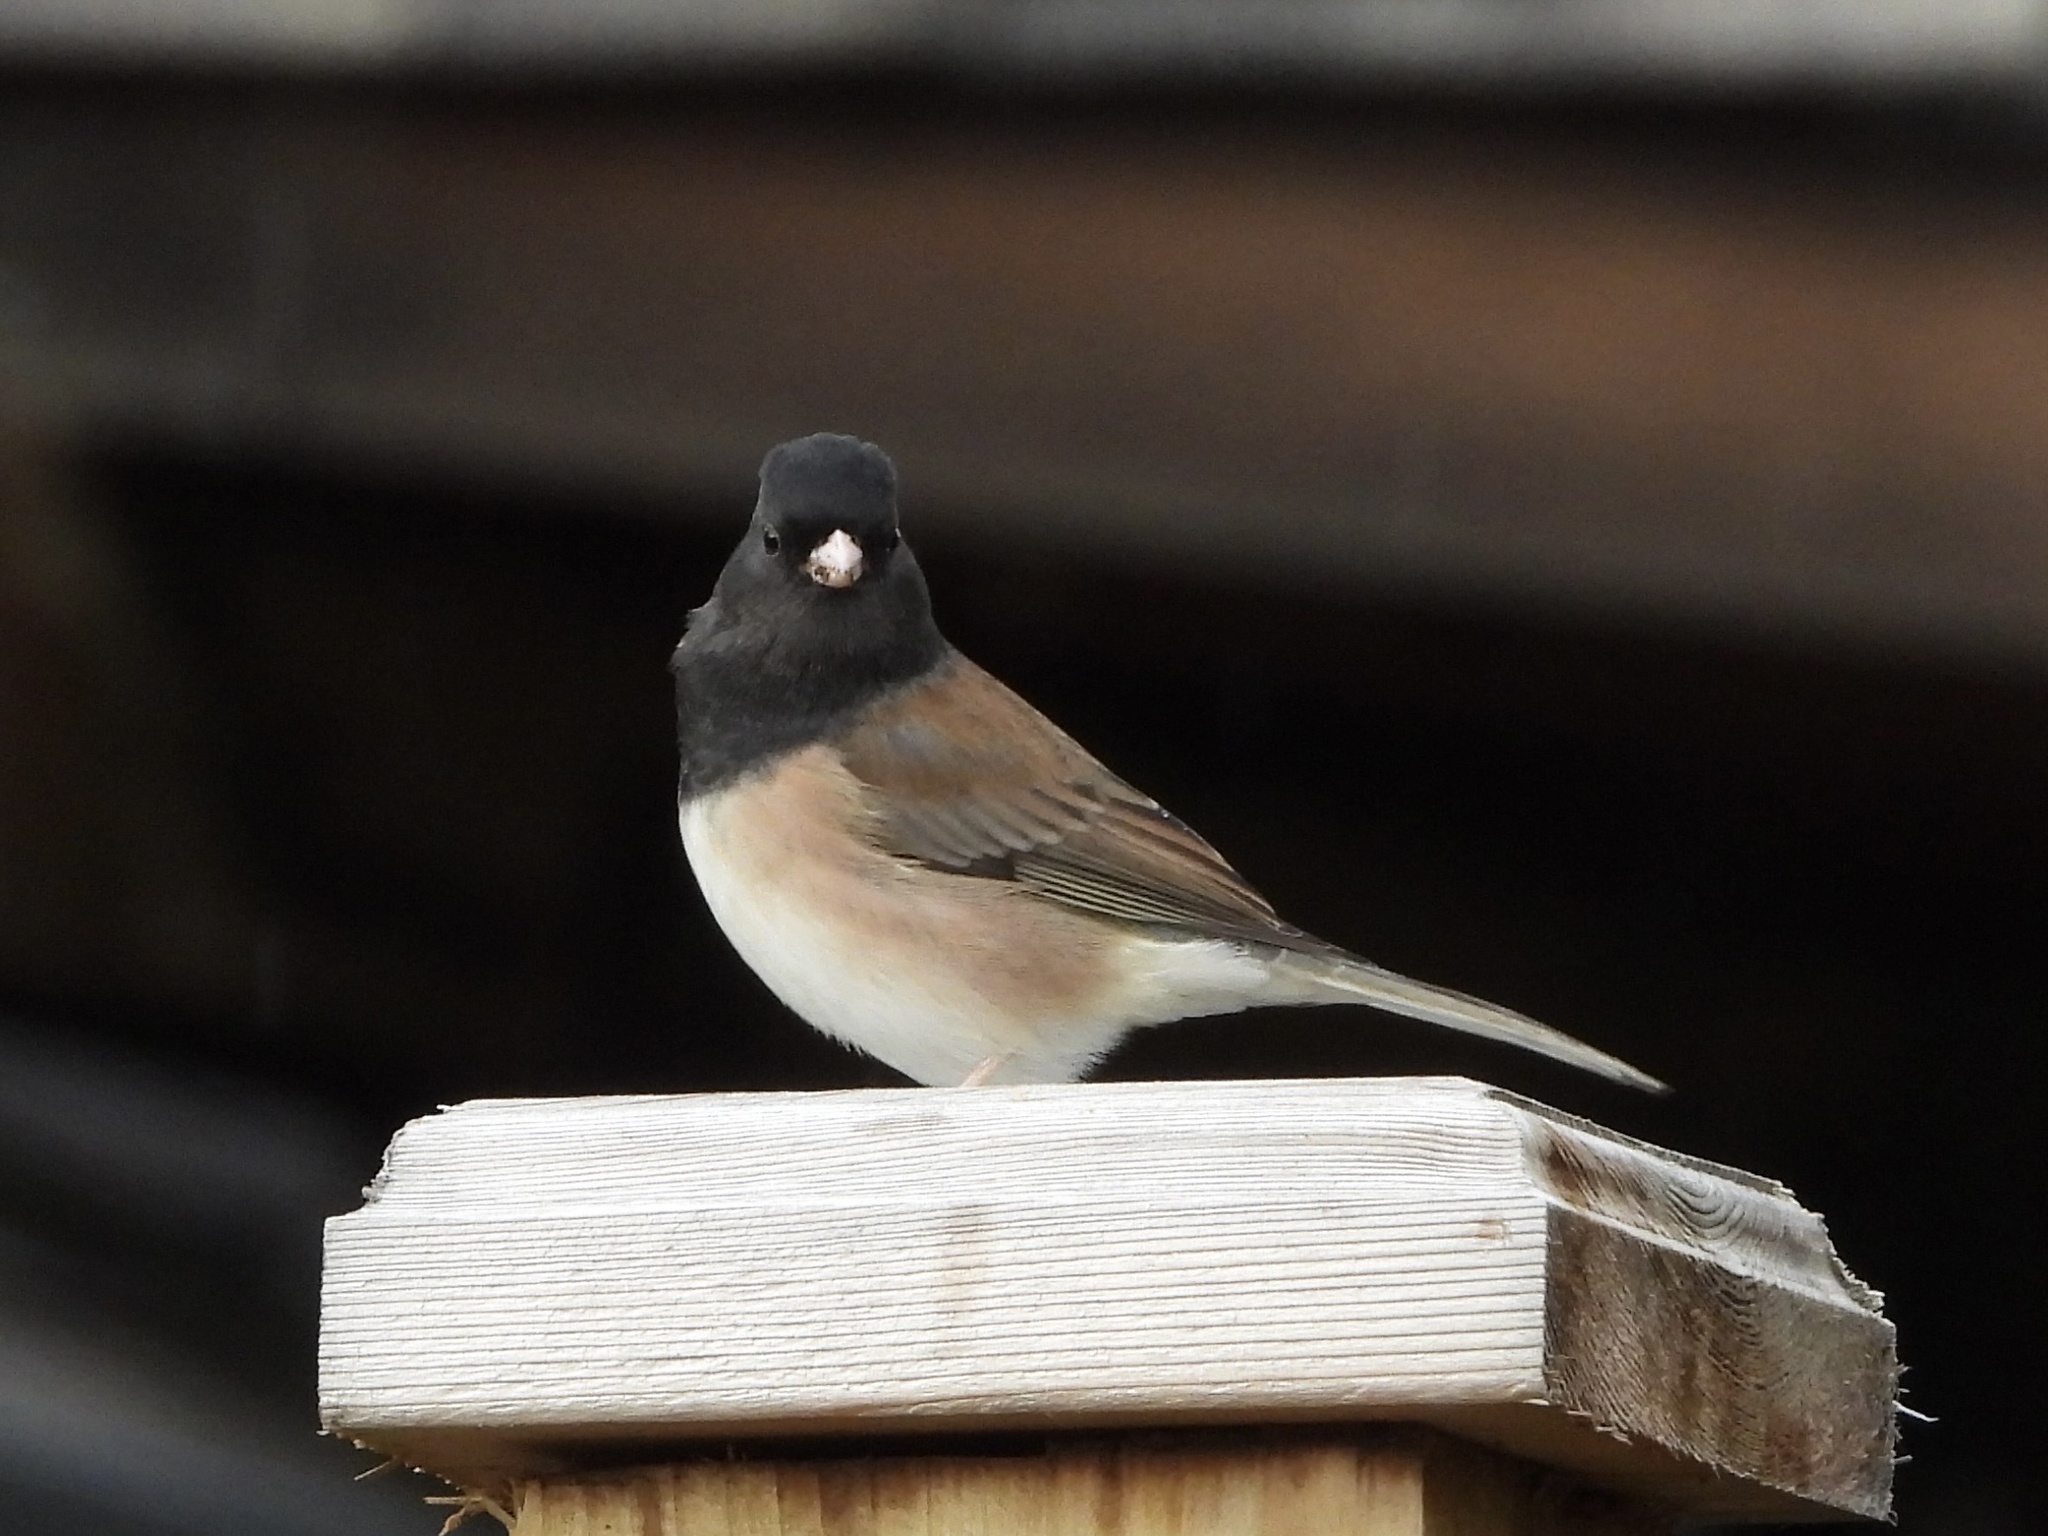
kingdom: Animalia
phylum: Chordata
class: Aves
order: Passeriformes
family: Passerellidae
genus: Junco
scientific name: Junco hyemalis
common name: Dark-eyed junco
